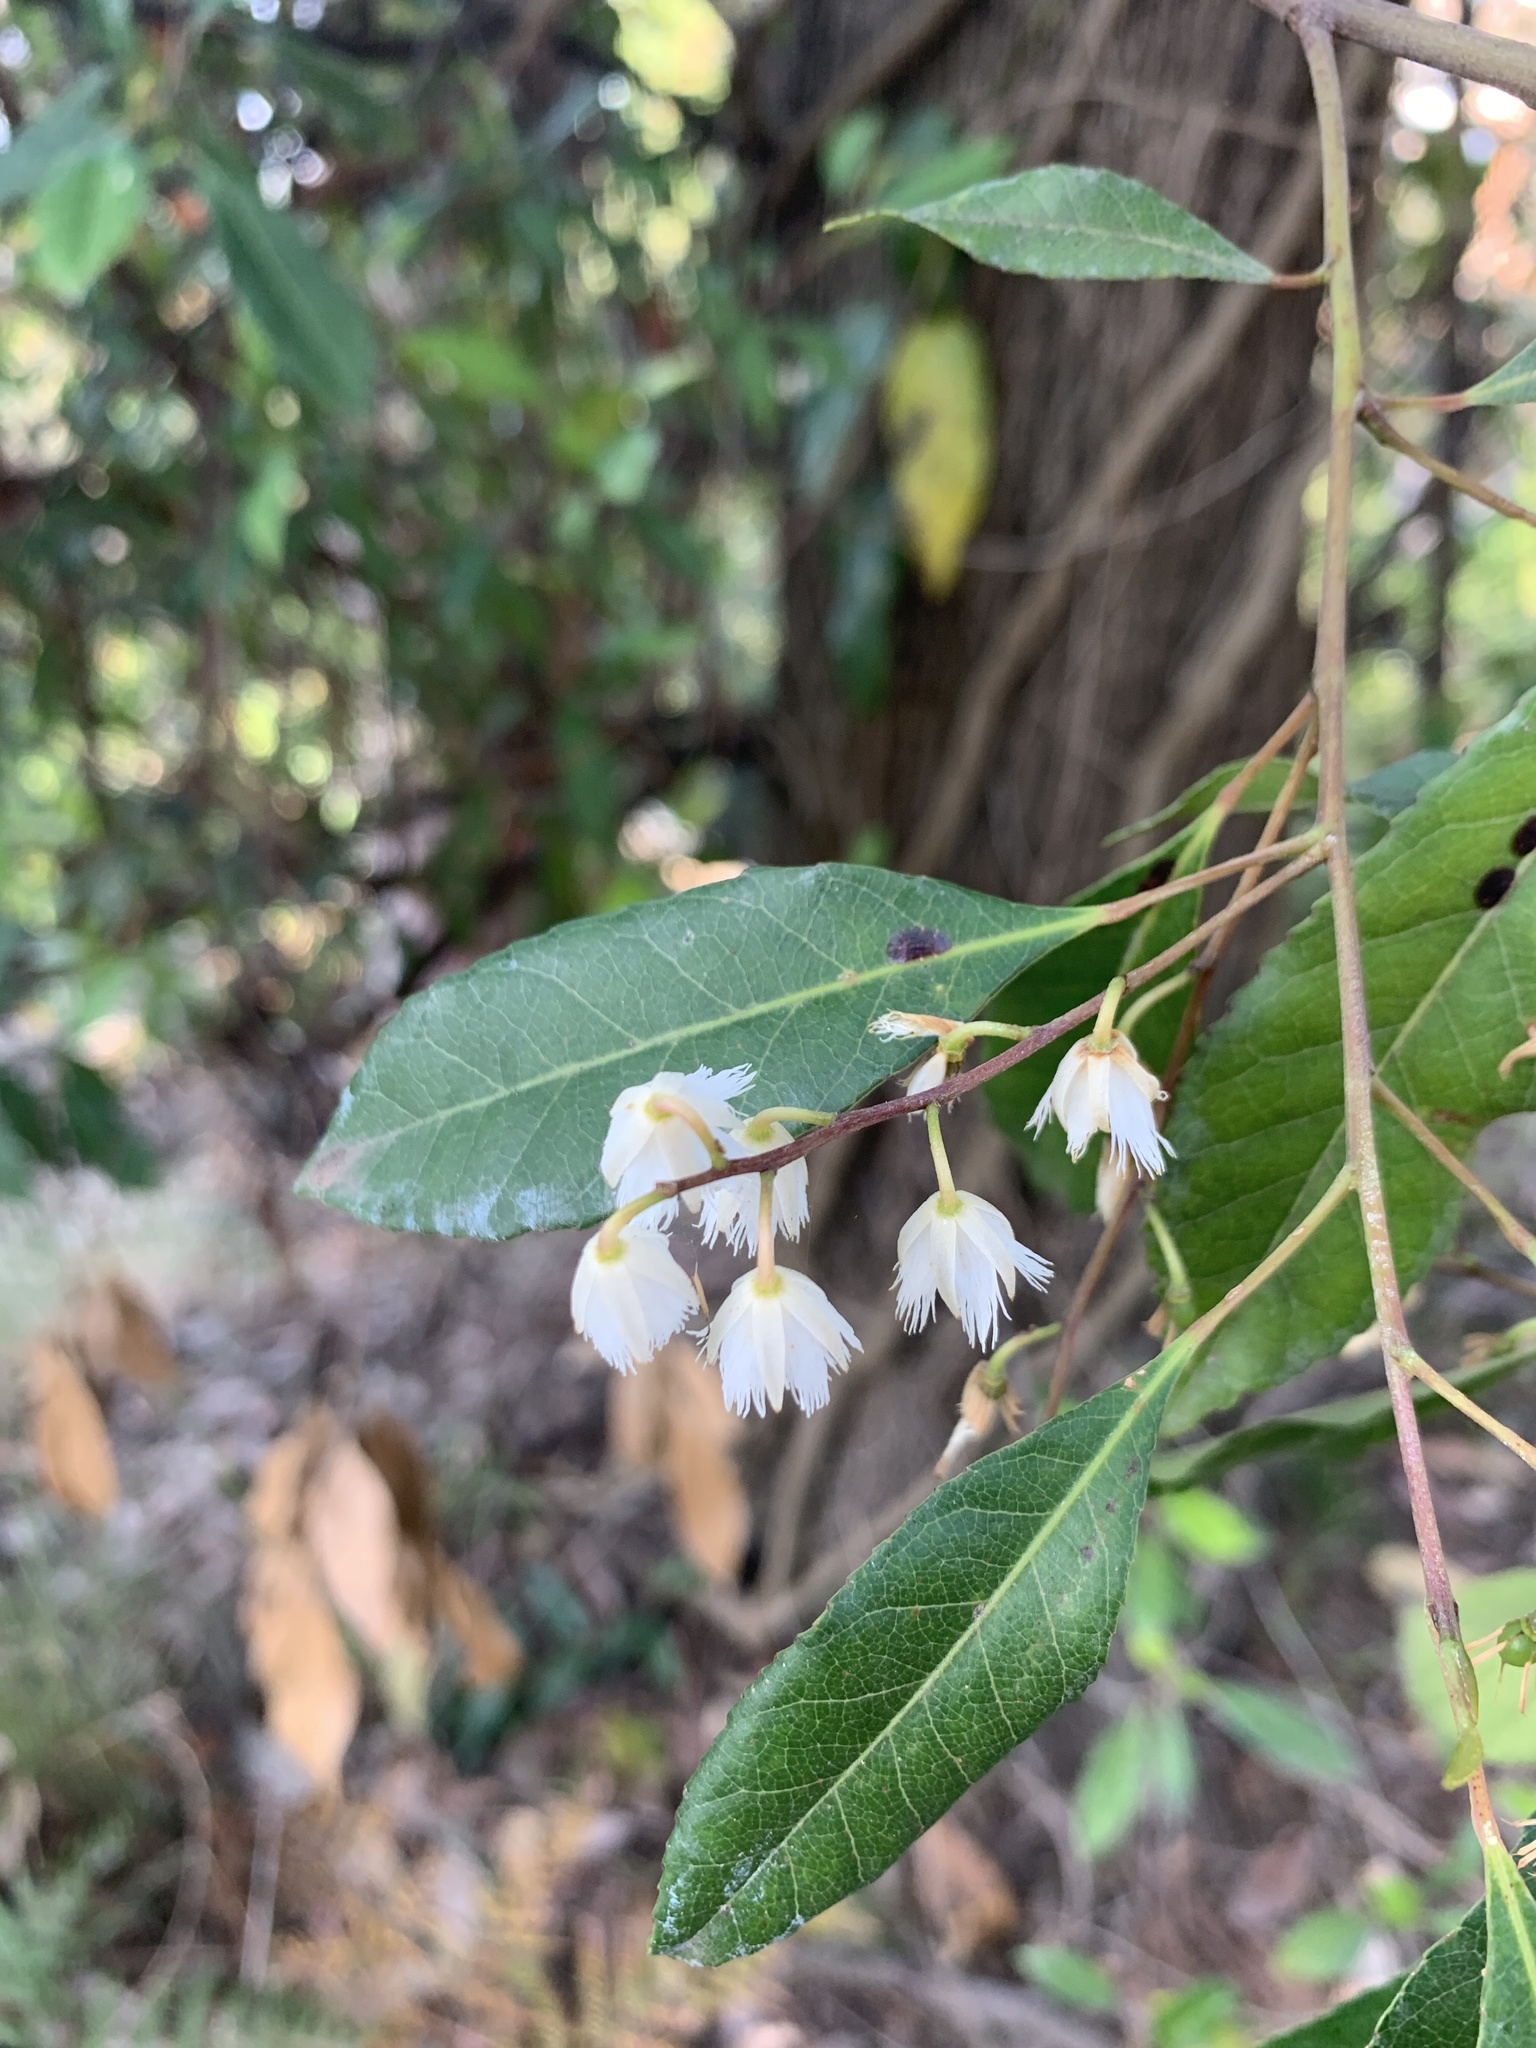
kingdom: Plantae
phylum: Tracheophyta
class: Magnoliopsida
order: Oxalidales
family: Elaeocarpaceae
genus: Elaeocarpus
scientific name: Elaeocarpus reticulatus
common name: Ash quandong
